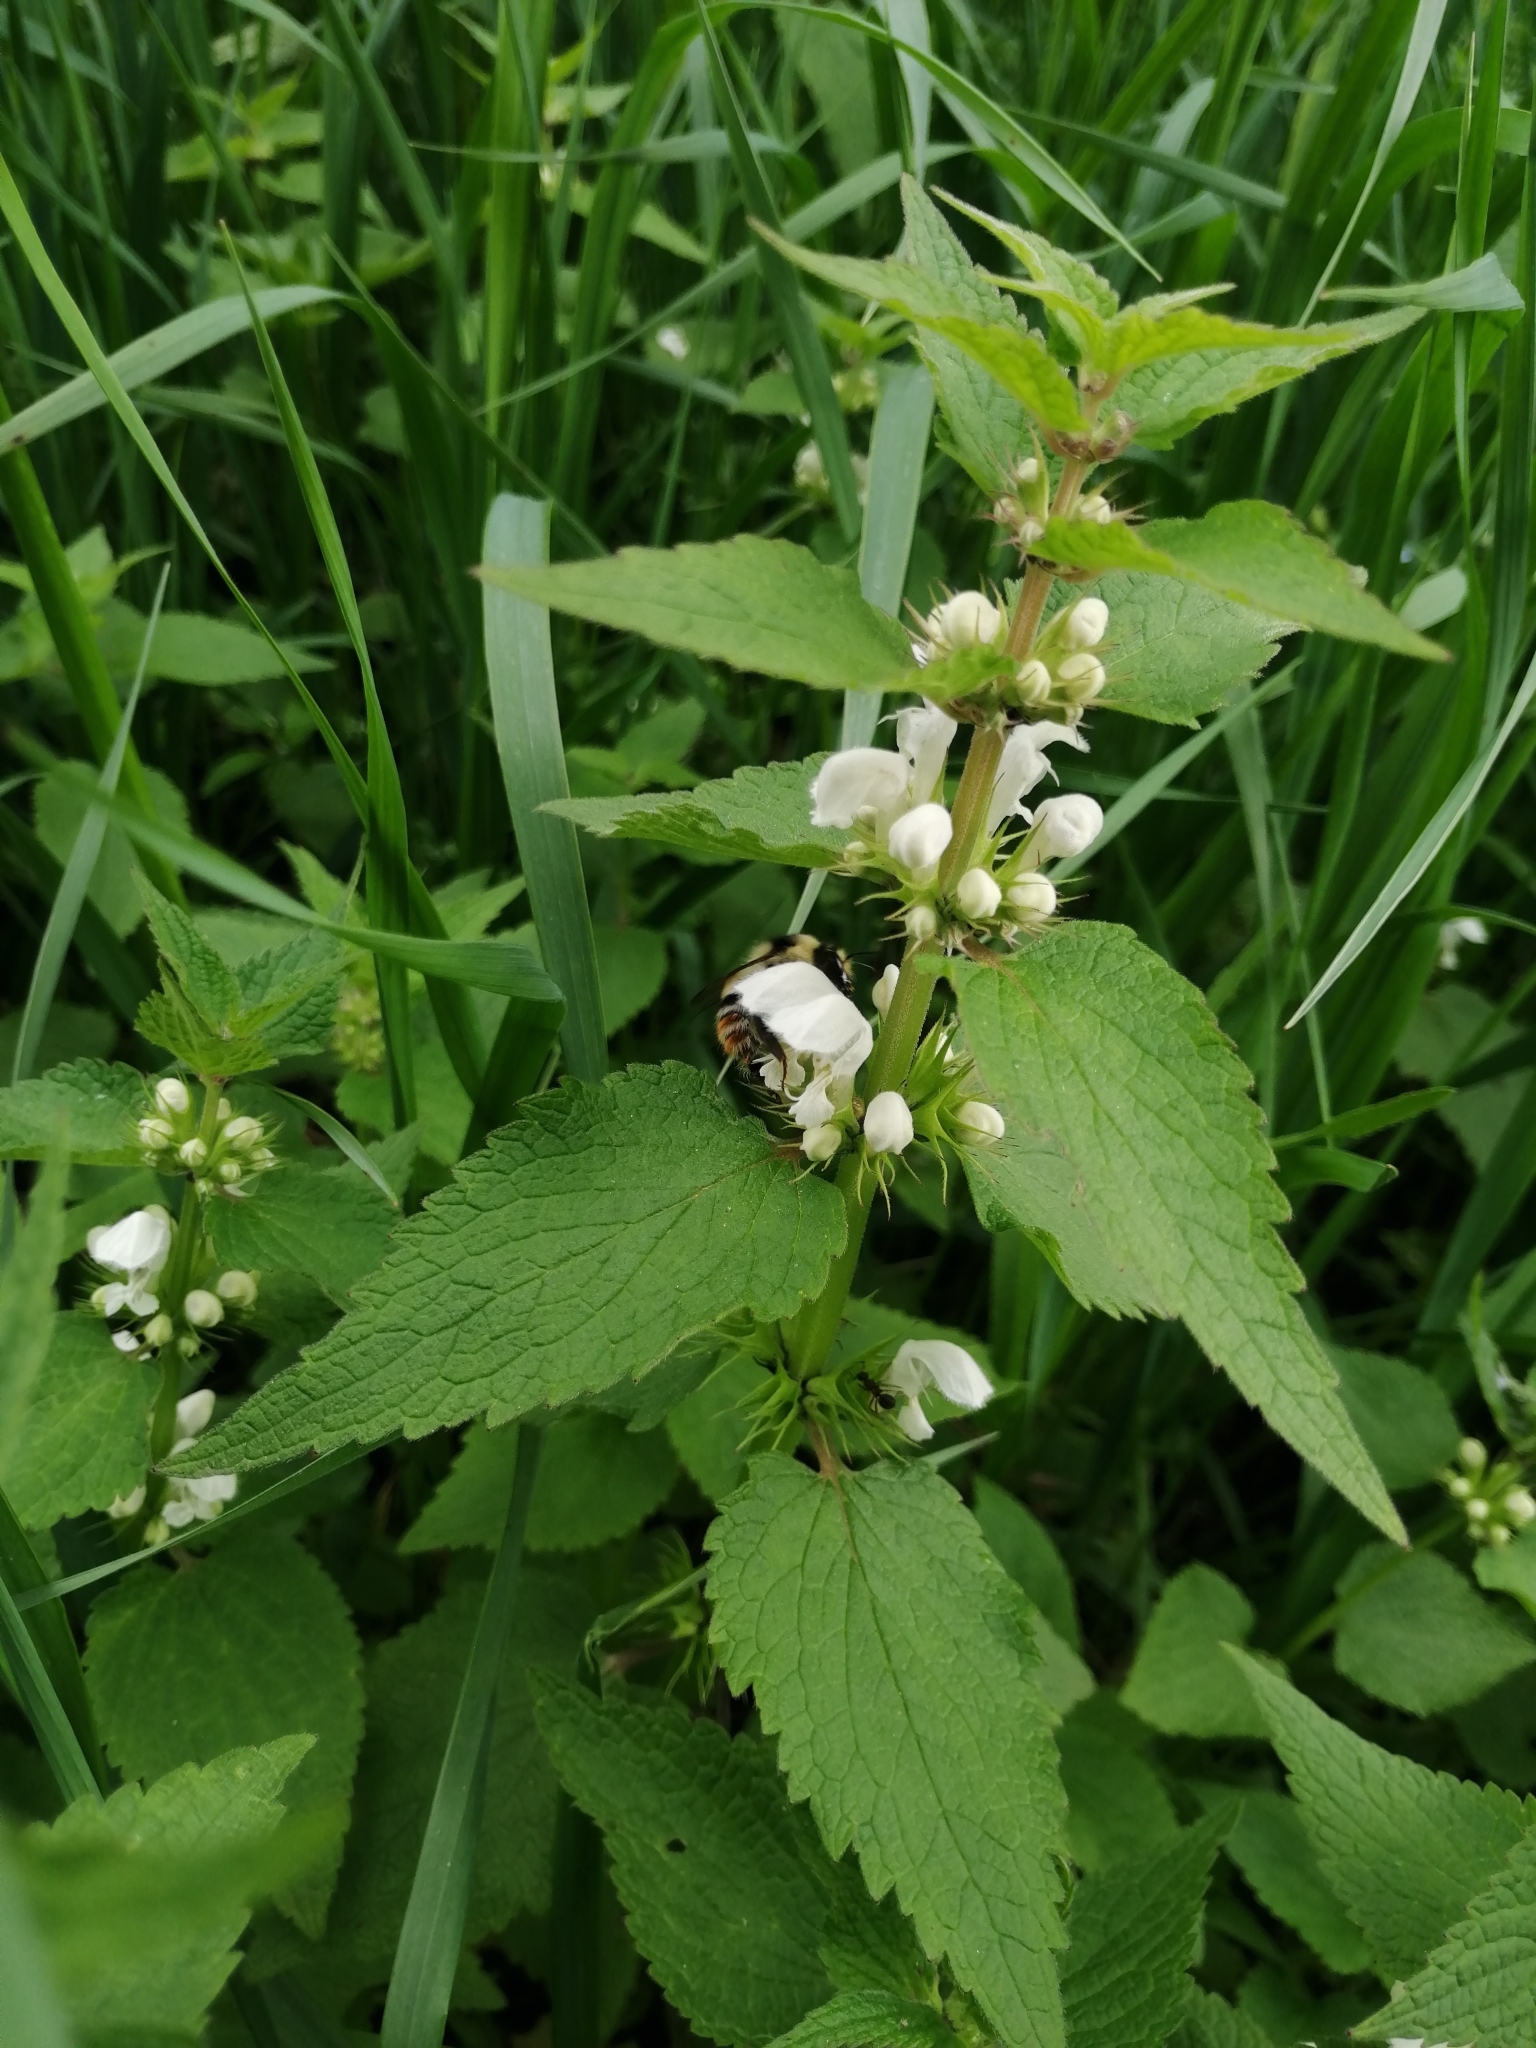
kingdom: Animalia
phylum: Arthropoda
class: Insecta
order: Hymenoptera
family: Apidae
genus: Bombus
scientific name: Bombus sylvarum
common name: Shrill carder bee
